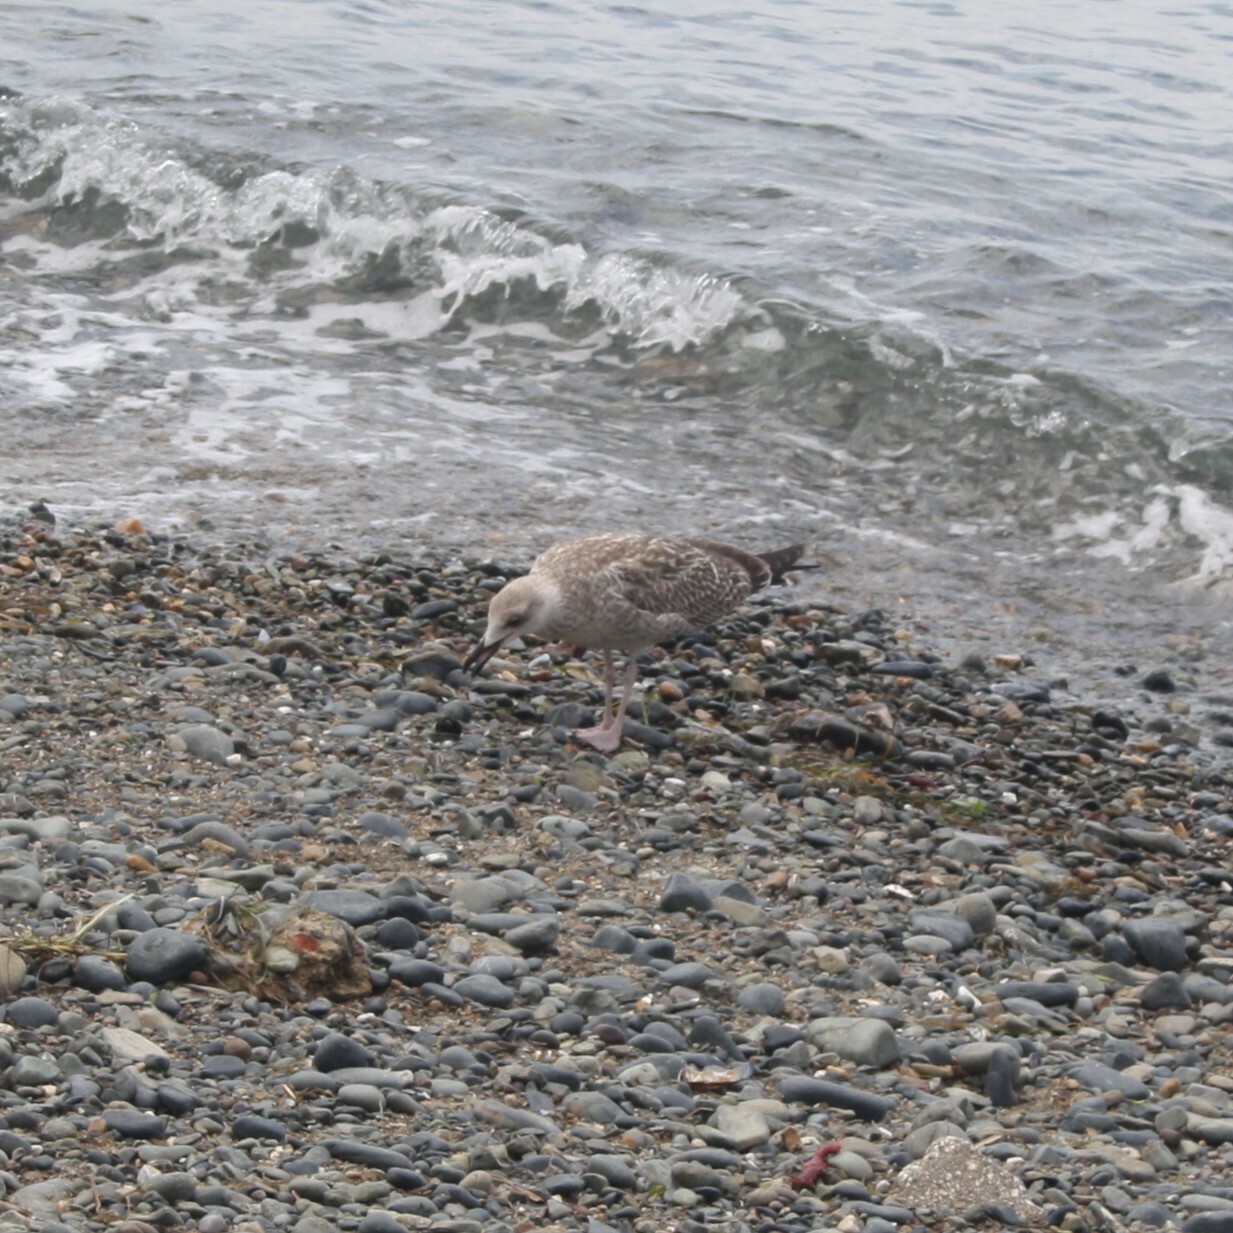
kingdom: Animalia
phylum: Chordata
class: Aves
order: Charadriiformes
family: Laridae
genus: Larus
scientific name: Larus michahellis
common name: Yellow-legged gull
